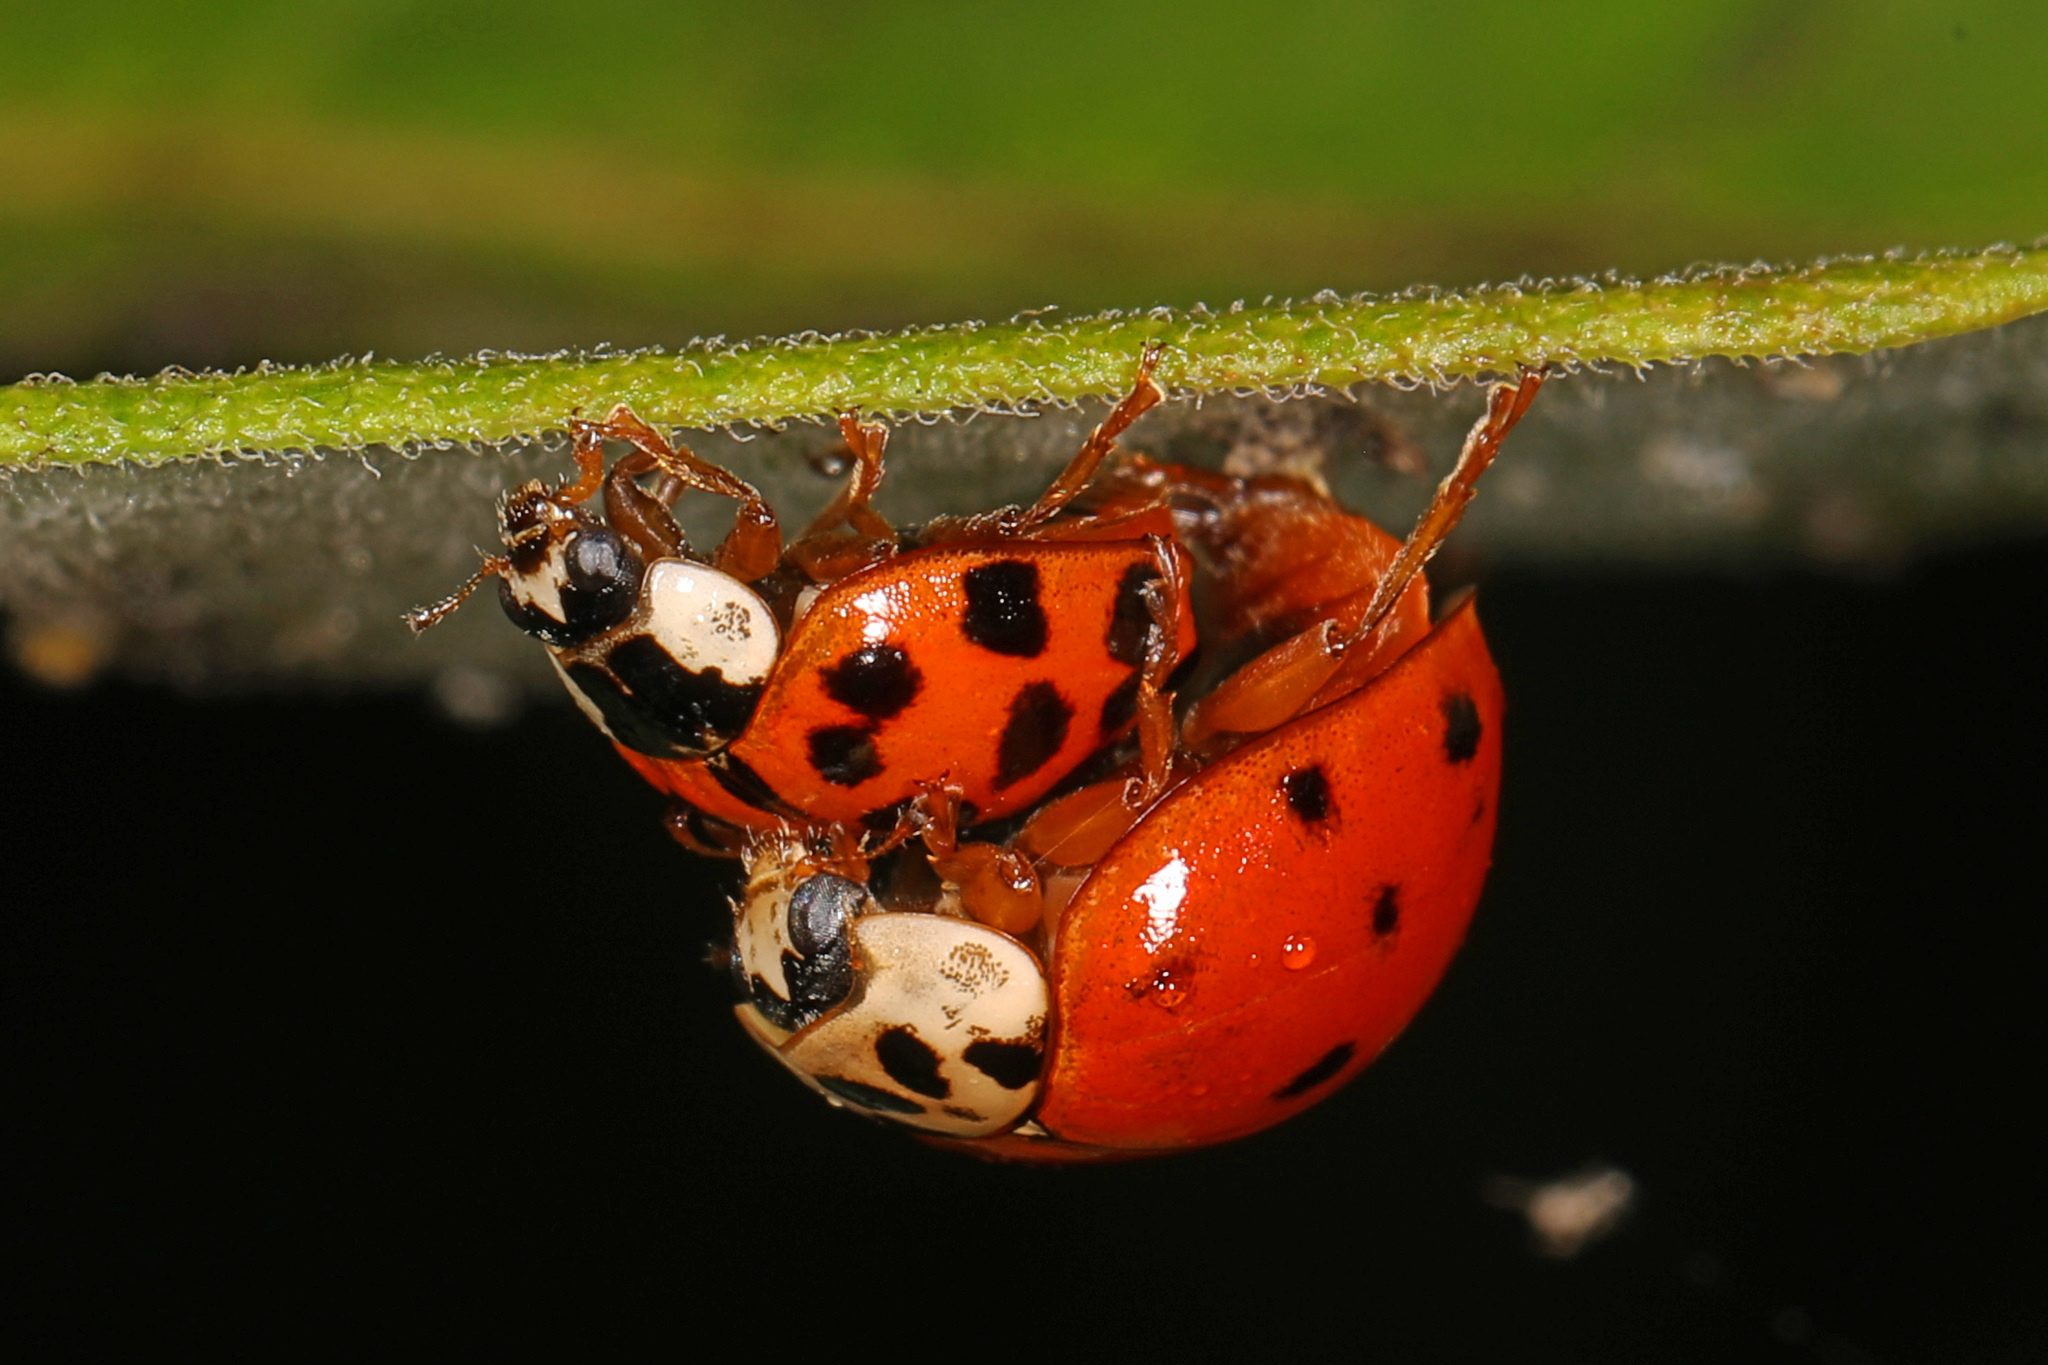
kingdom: Animalia
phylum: Arthropoda
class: Insecta
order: Coleoptera
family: Coccinellidae
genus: Harmonia
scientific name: Harmonia axyridis
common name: Harlequin ladybird
